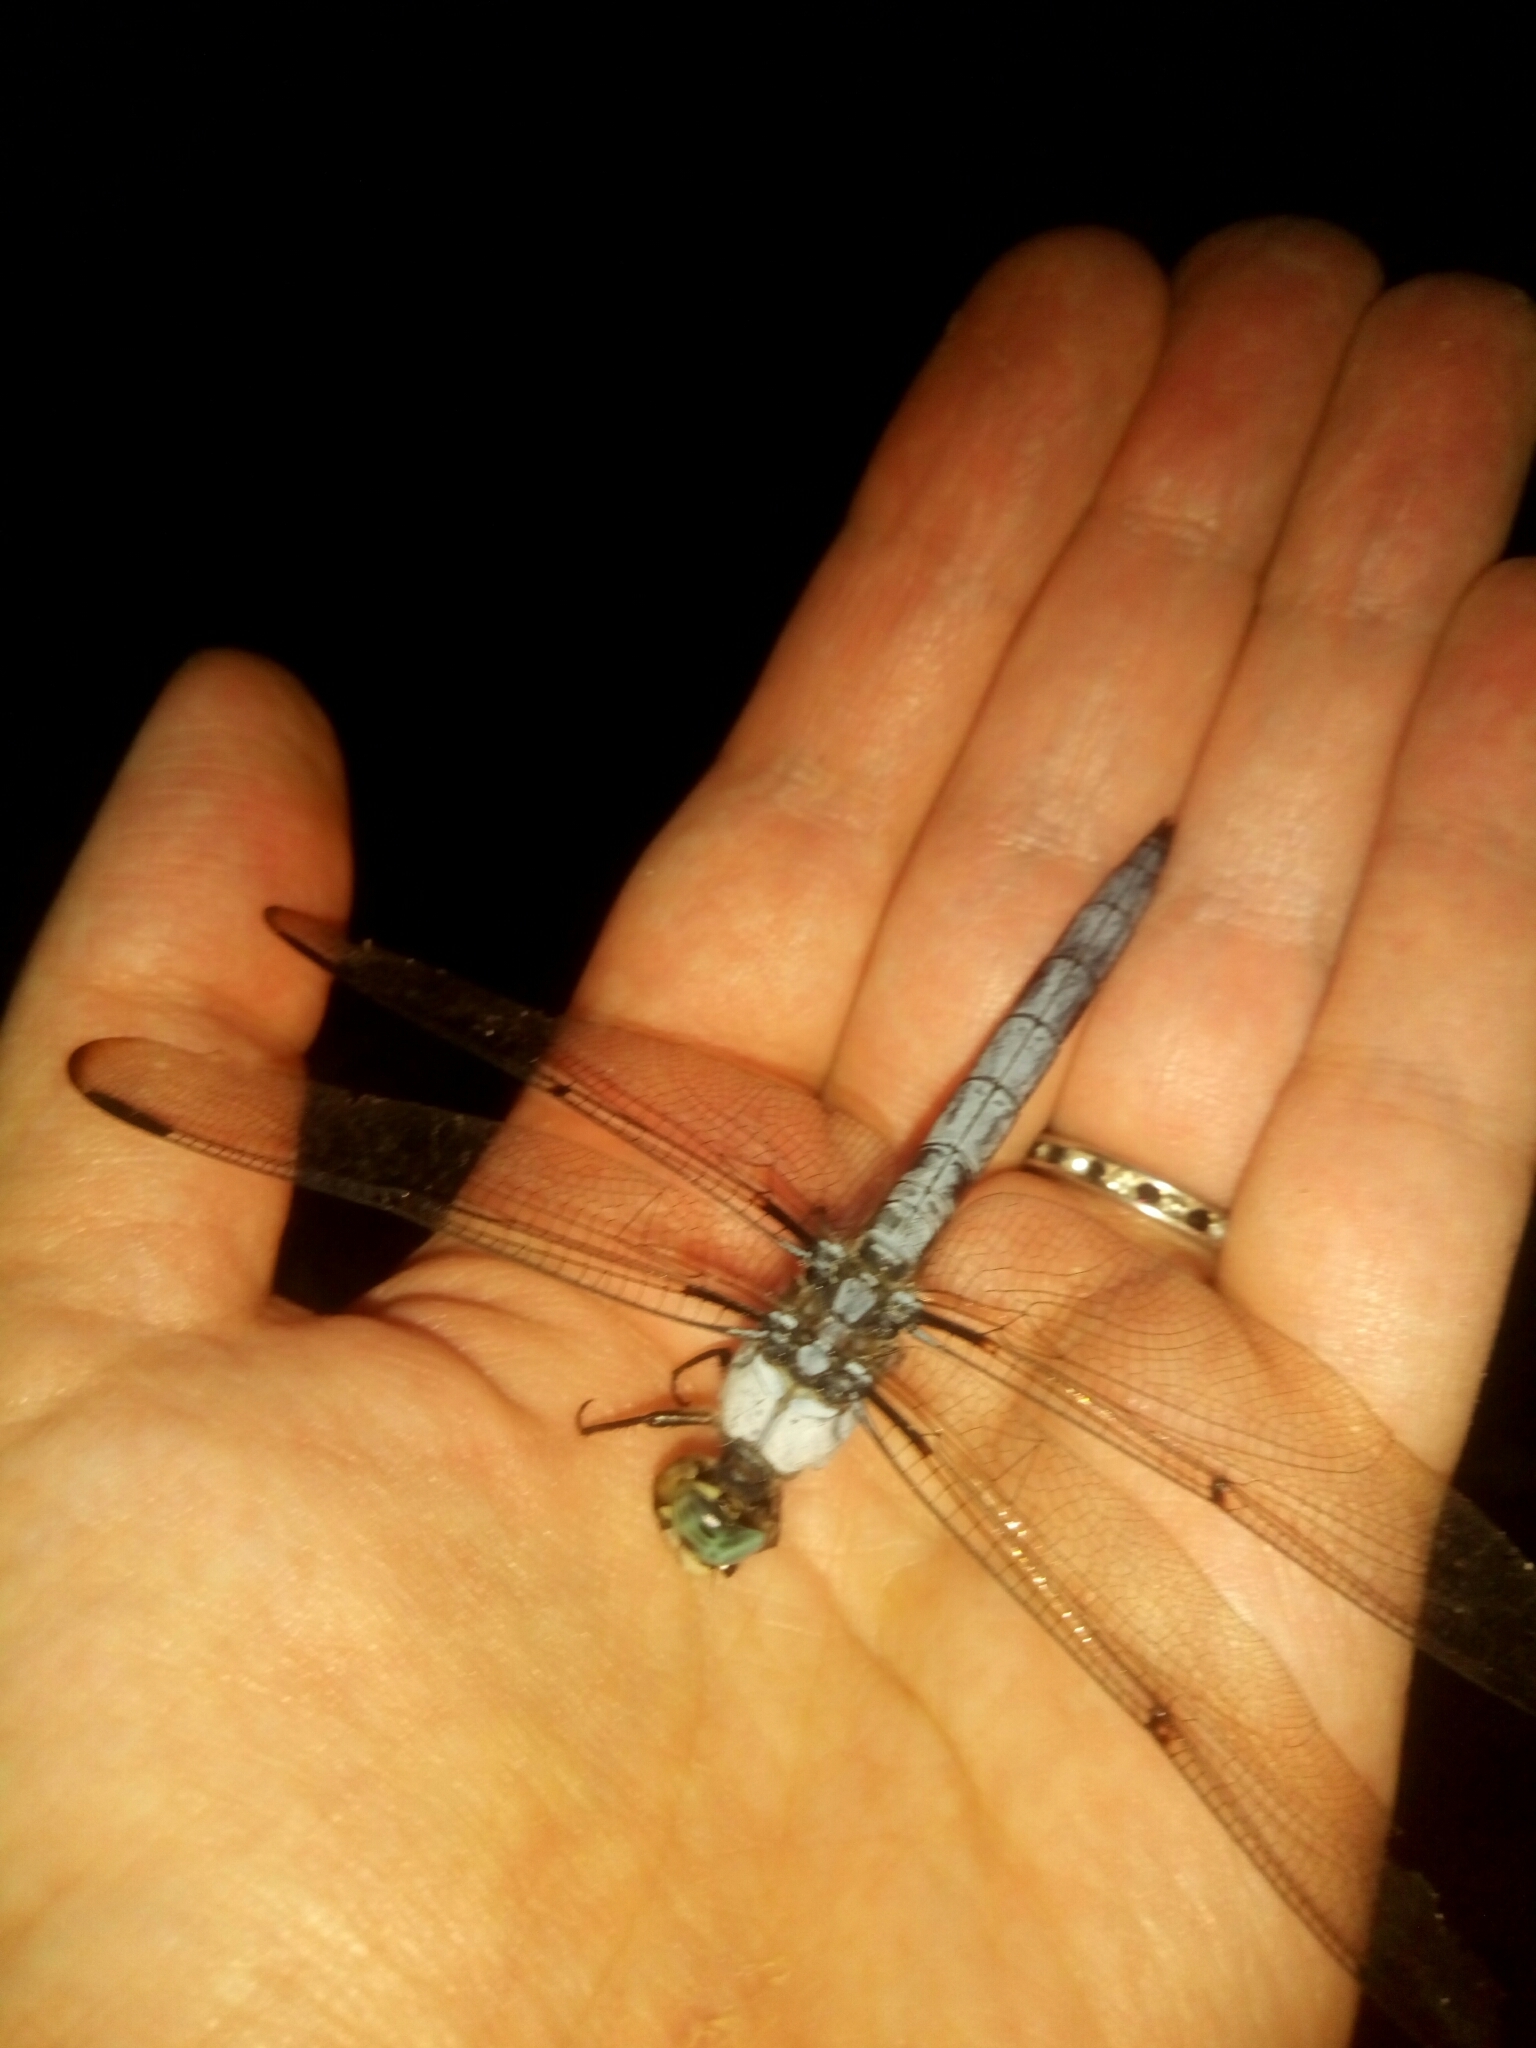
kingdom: Animalia
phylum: Arthropoda
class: Insecta
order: Odonata
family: Libellulidae
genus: Libellula
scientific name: Libellula vibrans
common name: Great blue skimmer
